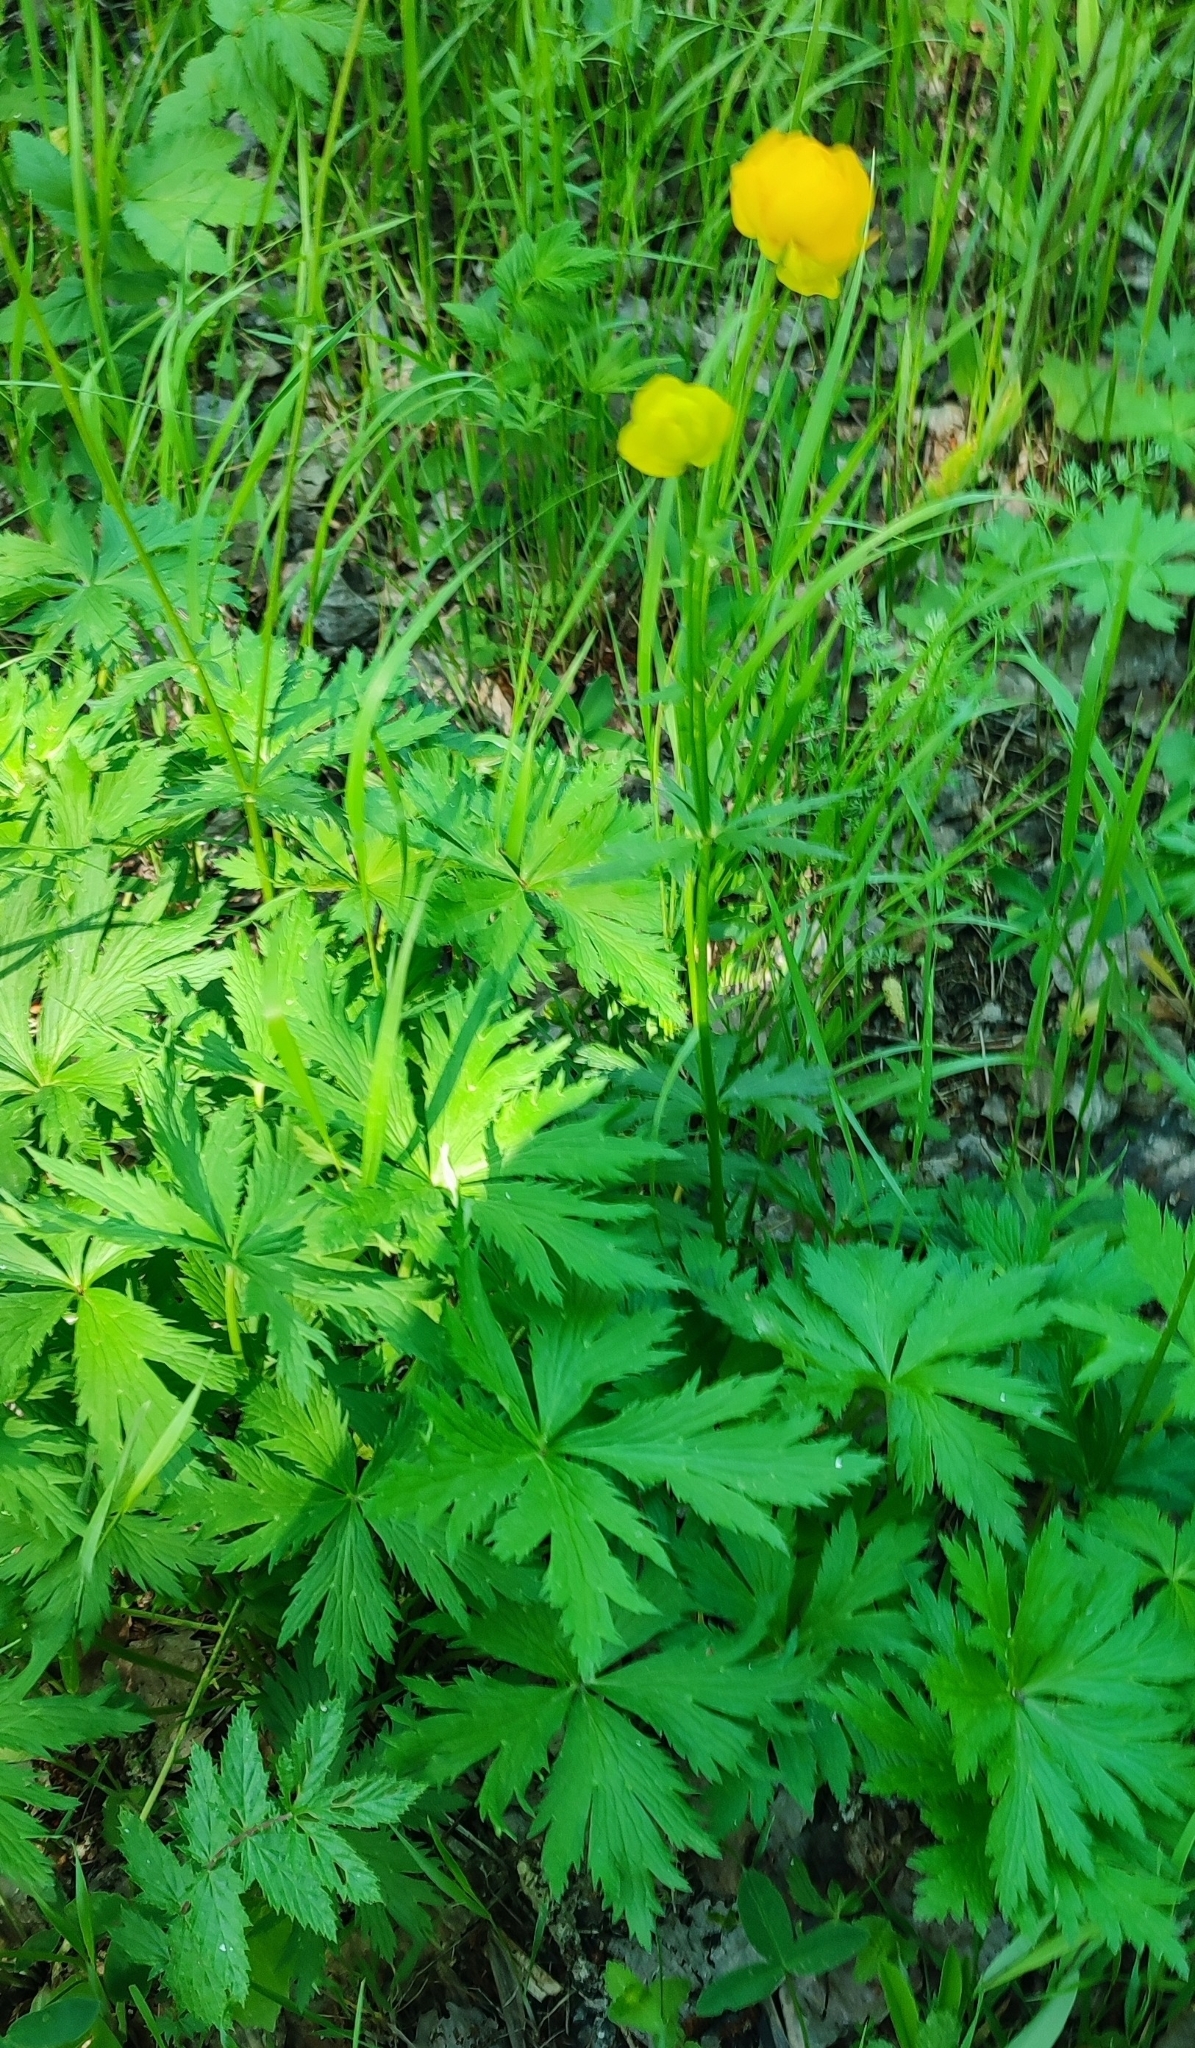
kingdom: Plantae
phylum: Tracheophyta
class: Magnoliopsida
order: Ranunculales
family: Ranunculaceae
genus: Trollius
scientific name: Trollius europaeus
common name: European globeflower
